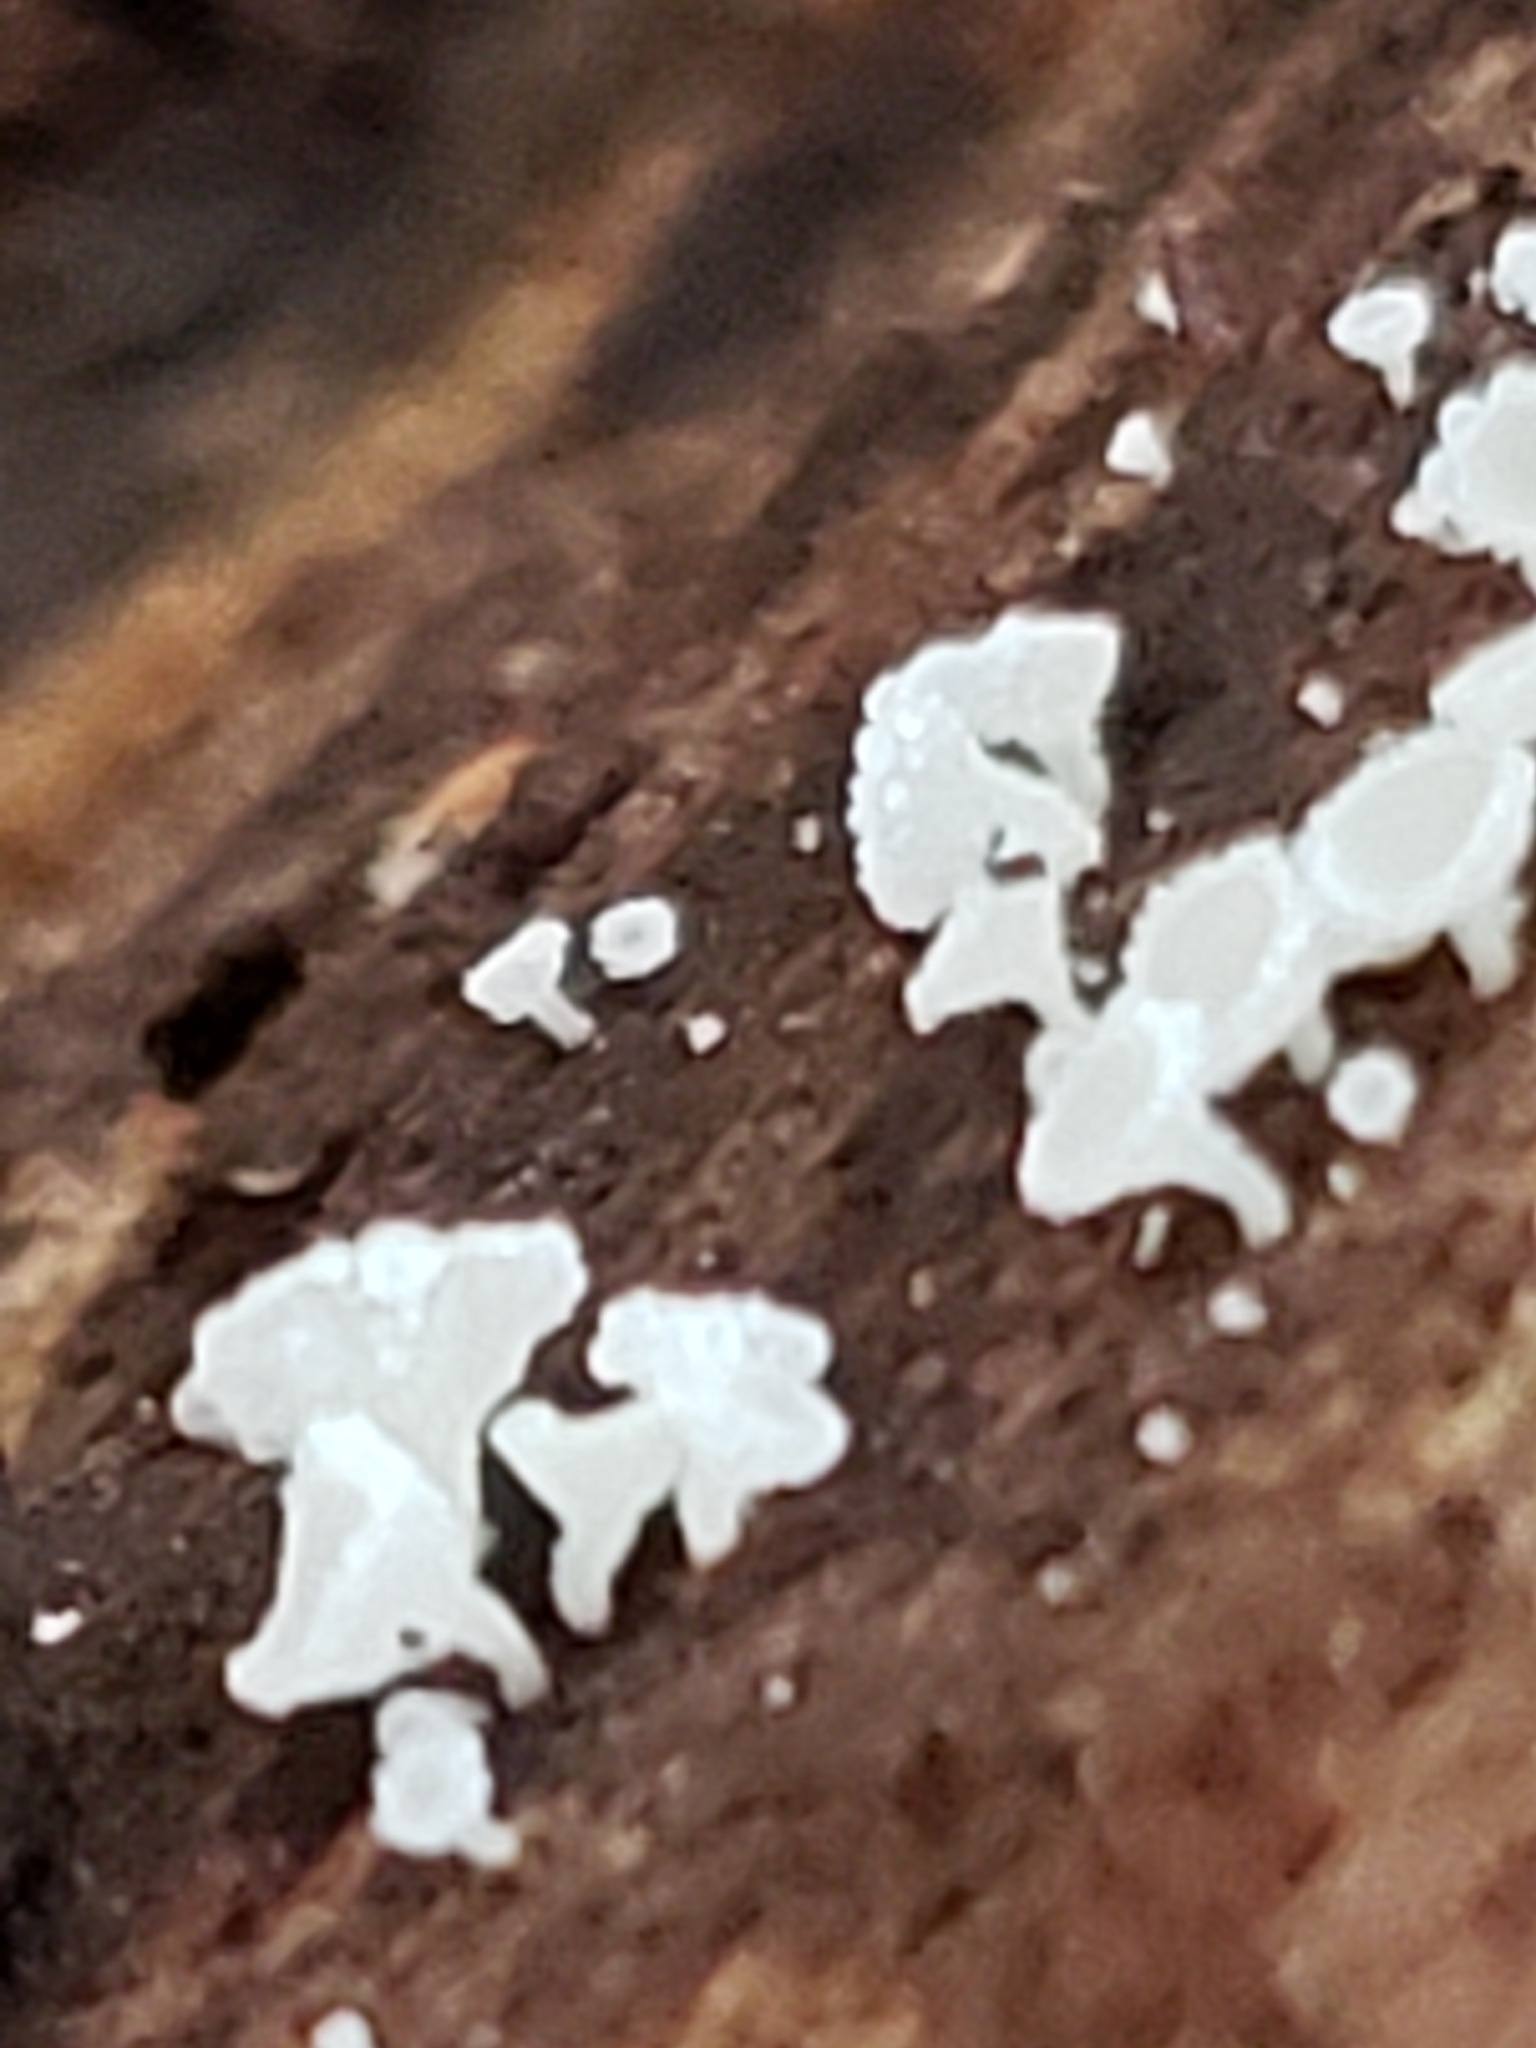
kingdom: Fungi
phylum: Ascomycota
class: Leotiomycetes
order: Helotiales
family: Lachnaceae
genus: Lachnum
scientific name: Lachnum virgineum
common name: Snowy disco
